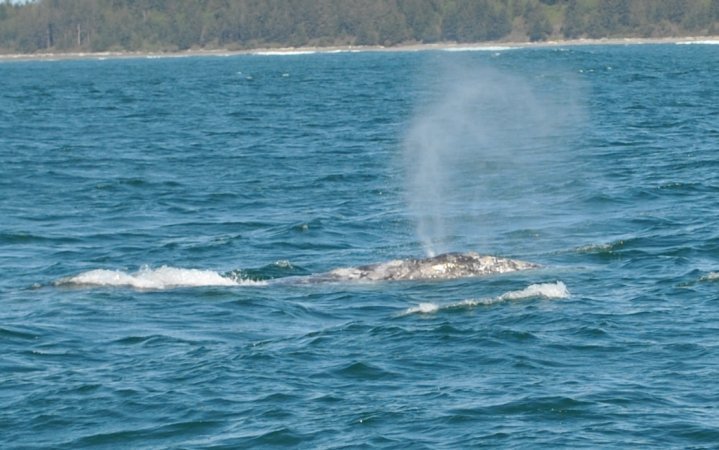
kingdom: Animalia
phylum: Chordata
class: Mammalia
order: Cetacea
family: Eschrichtiidae
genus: Eschrichtius
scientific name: Eschrichtius robustus
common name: Gray whale
